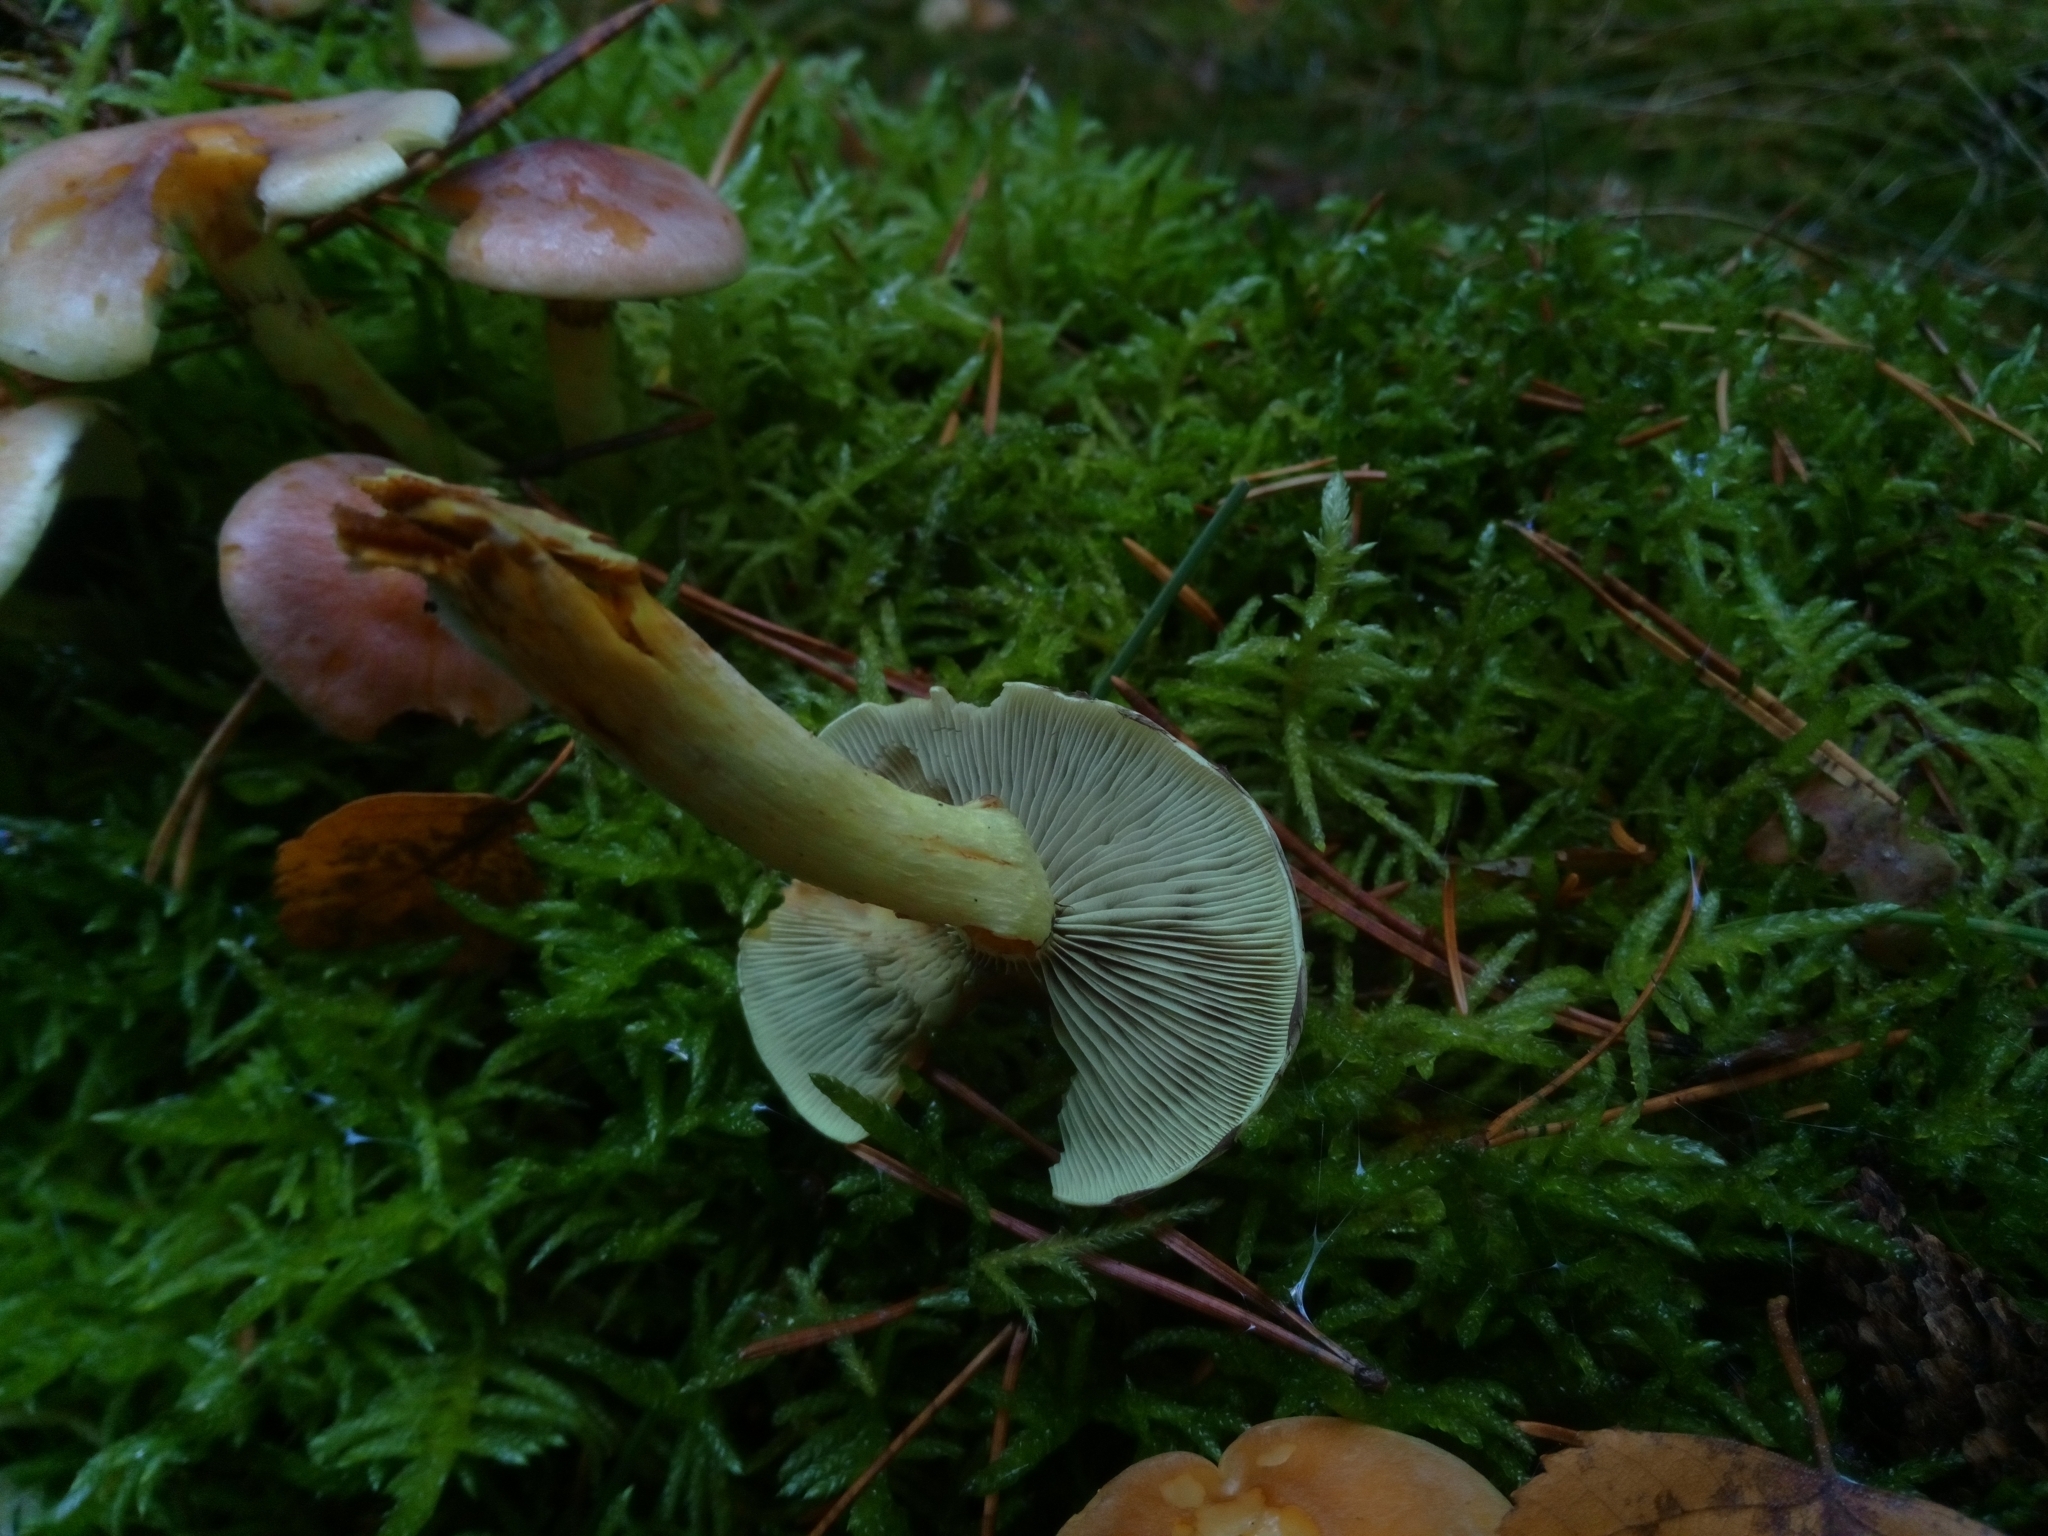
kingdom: Fungi
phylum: Basidiomycota
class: Agaricomycetes
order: Agaricales
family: Strophariaceae
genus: Hypholoma
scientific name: Hypholoma fasciculare
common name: Sulphur tuft
